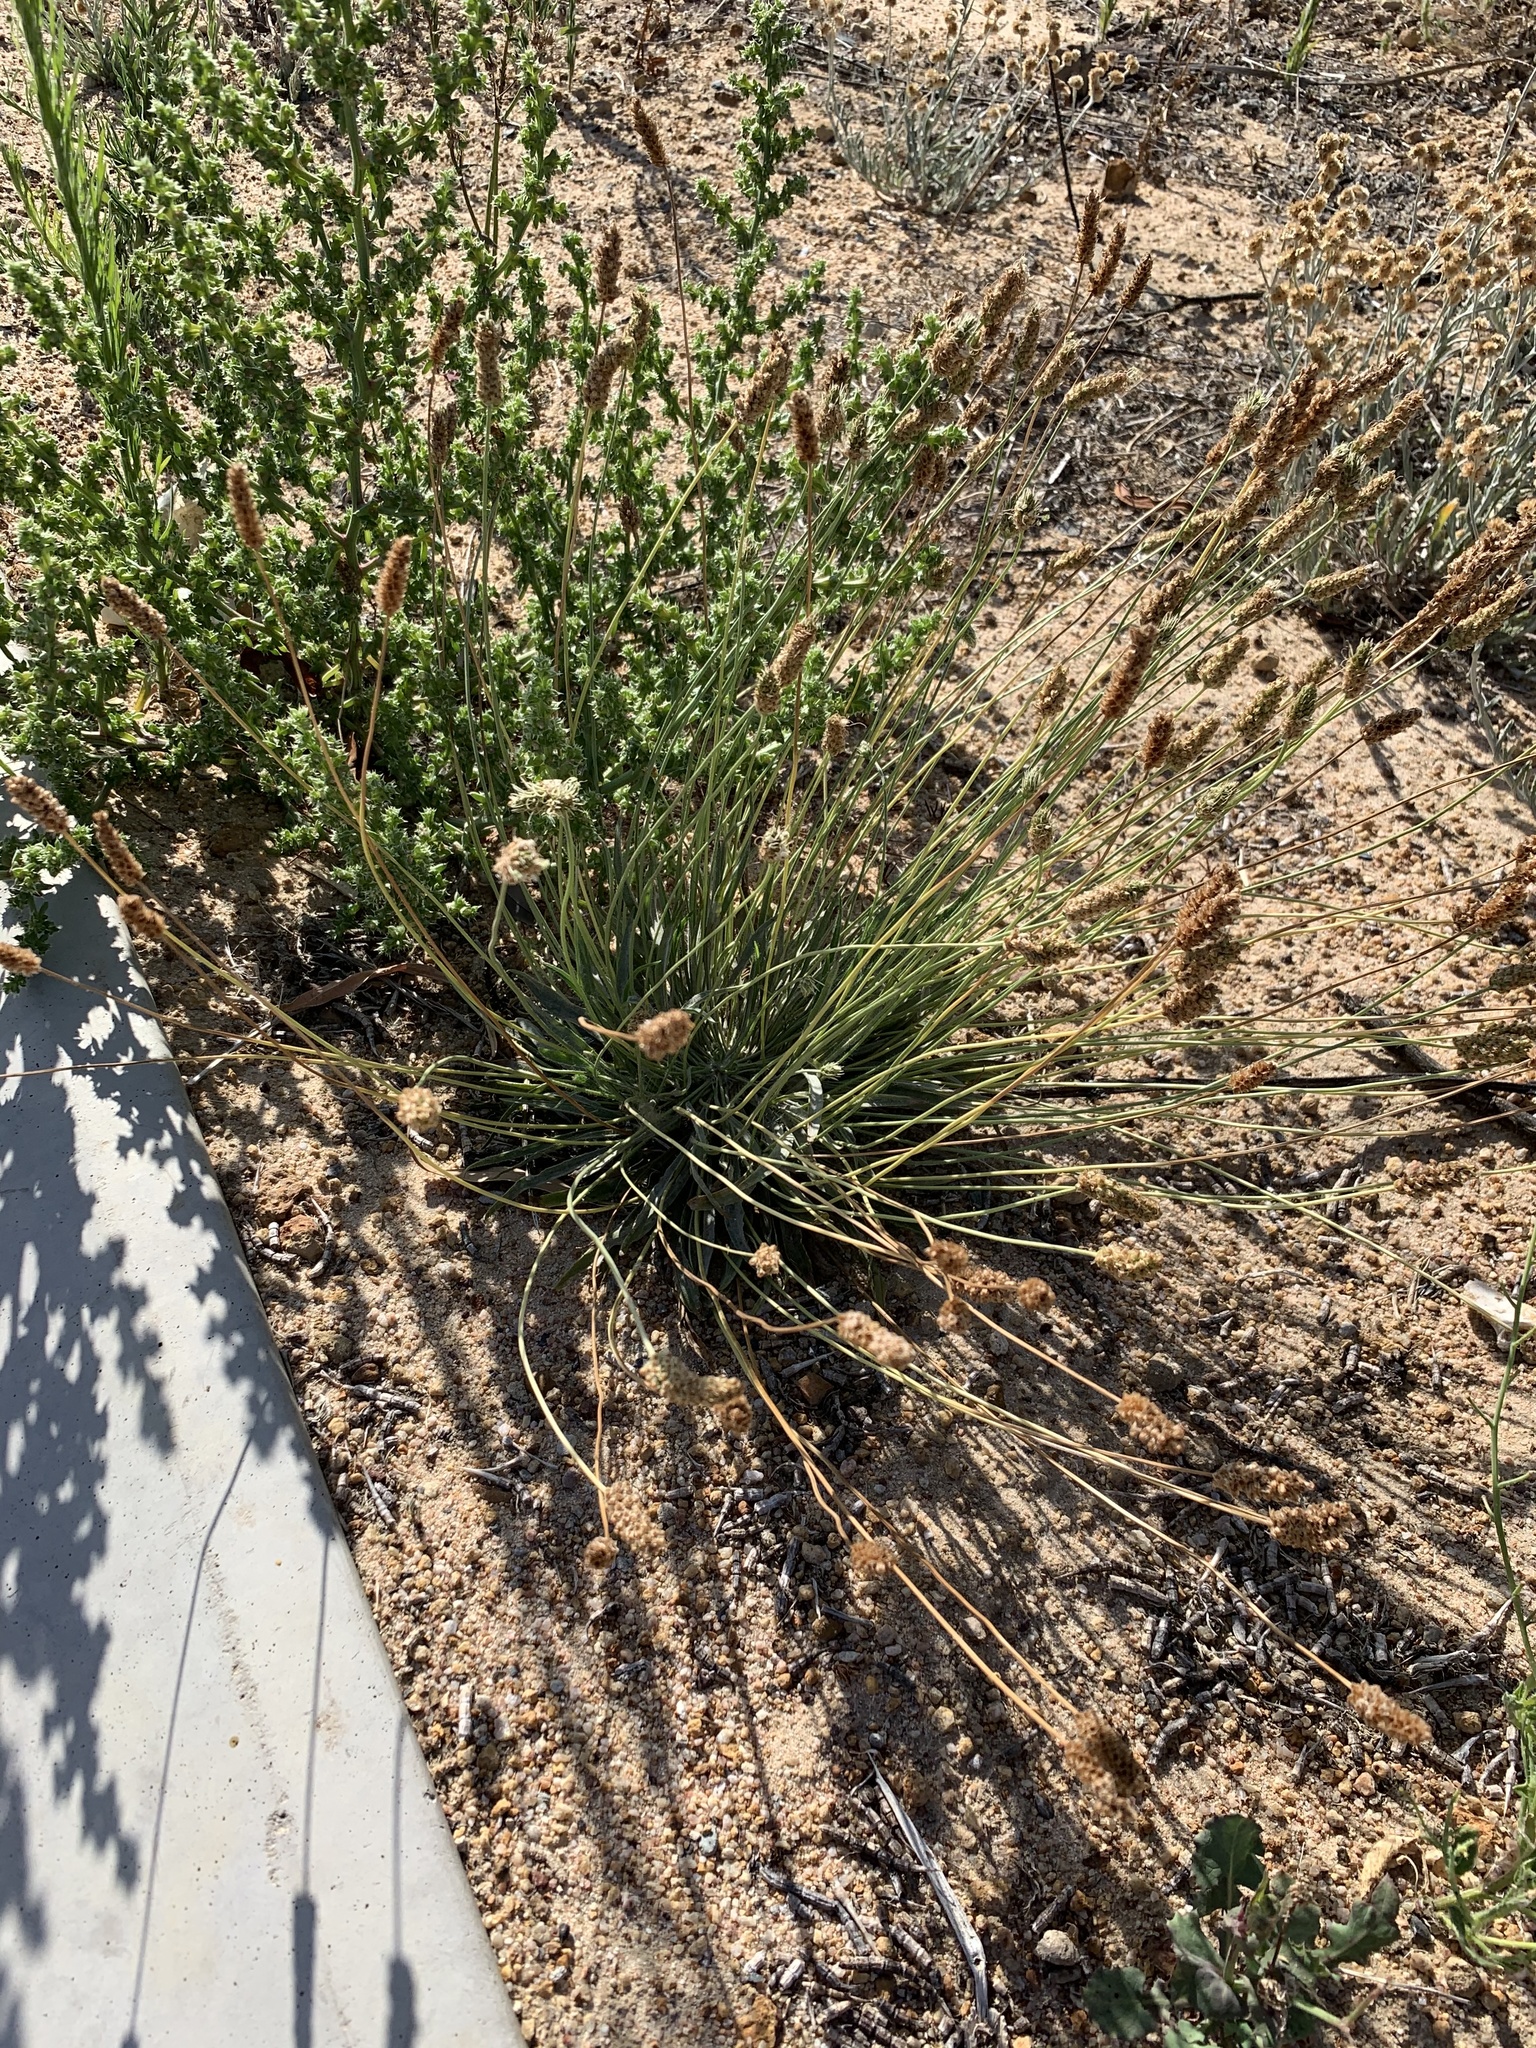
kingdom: Plantae
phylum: Tracheophyta
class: Magnoliopsida
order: Lamiales
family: Plantaginaceae
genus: Plantago
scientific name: Plantago lanceolata
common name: Ribwort plantain
